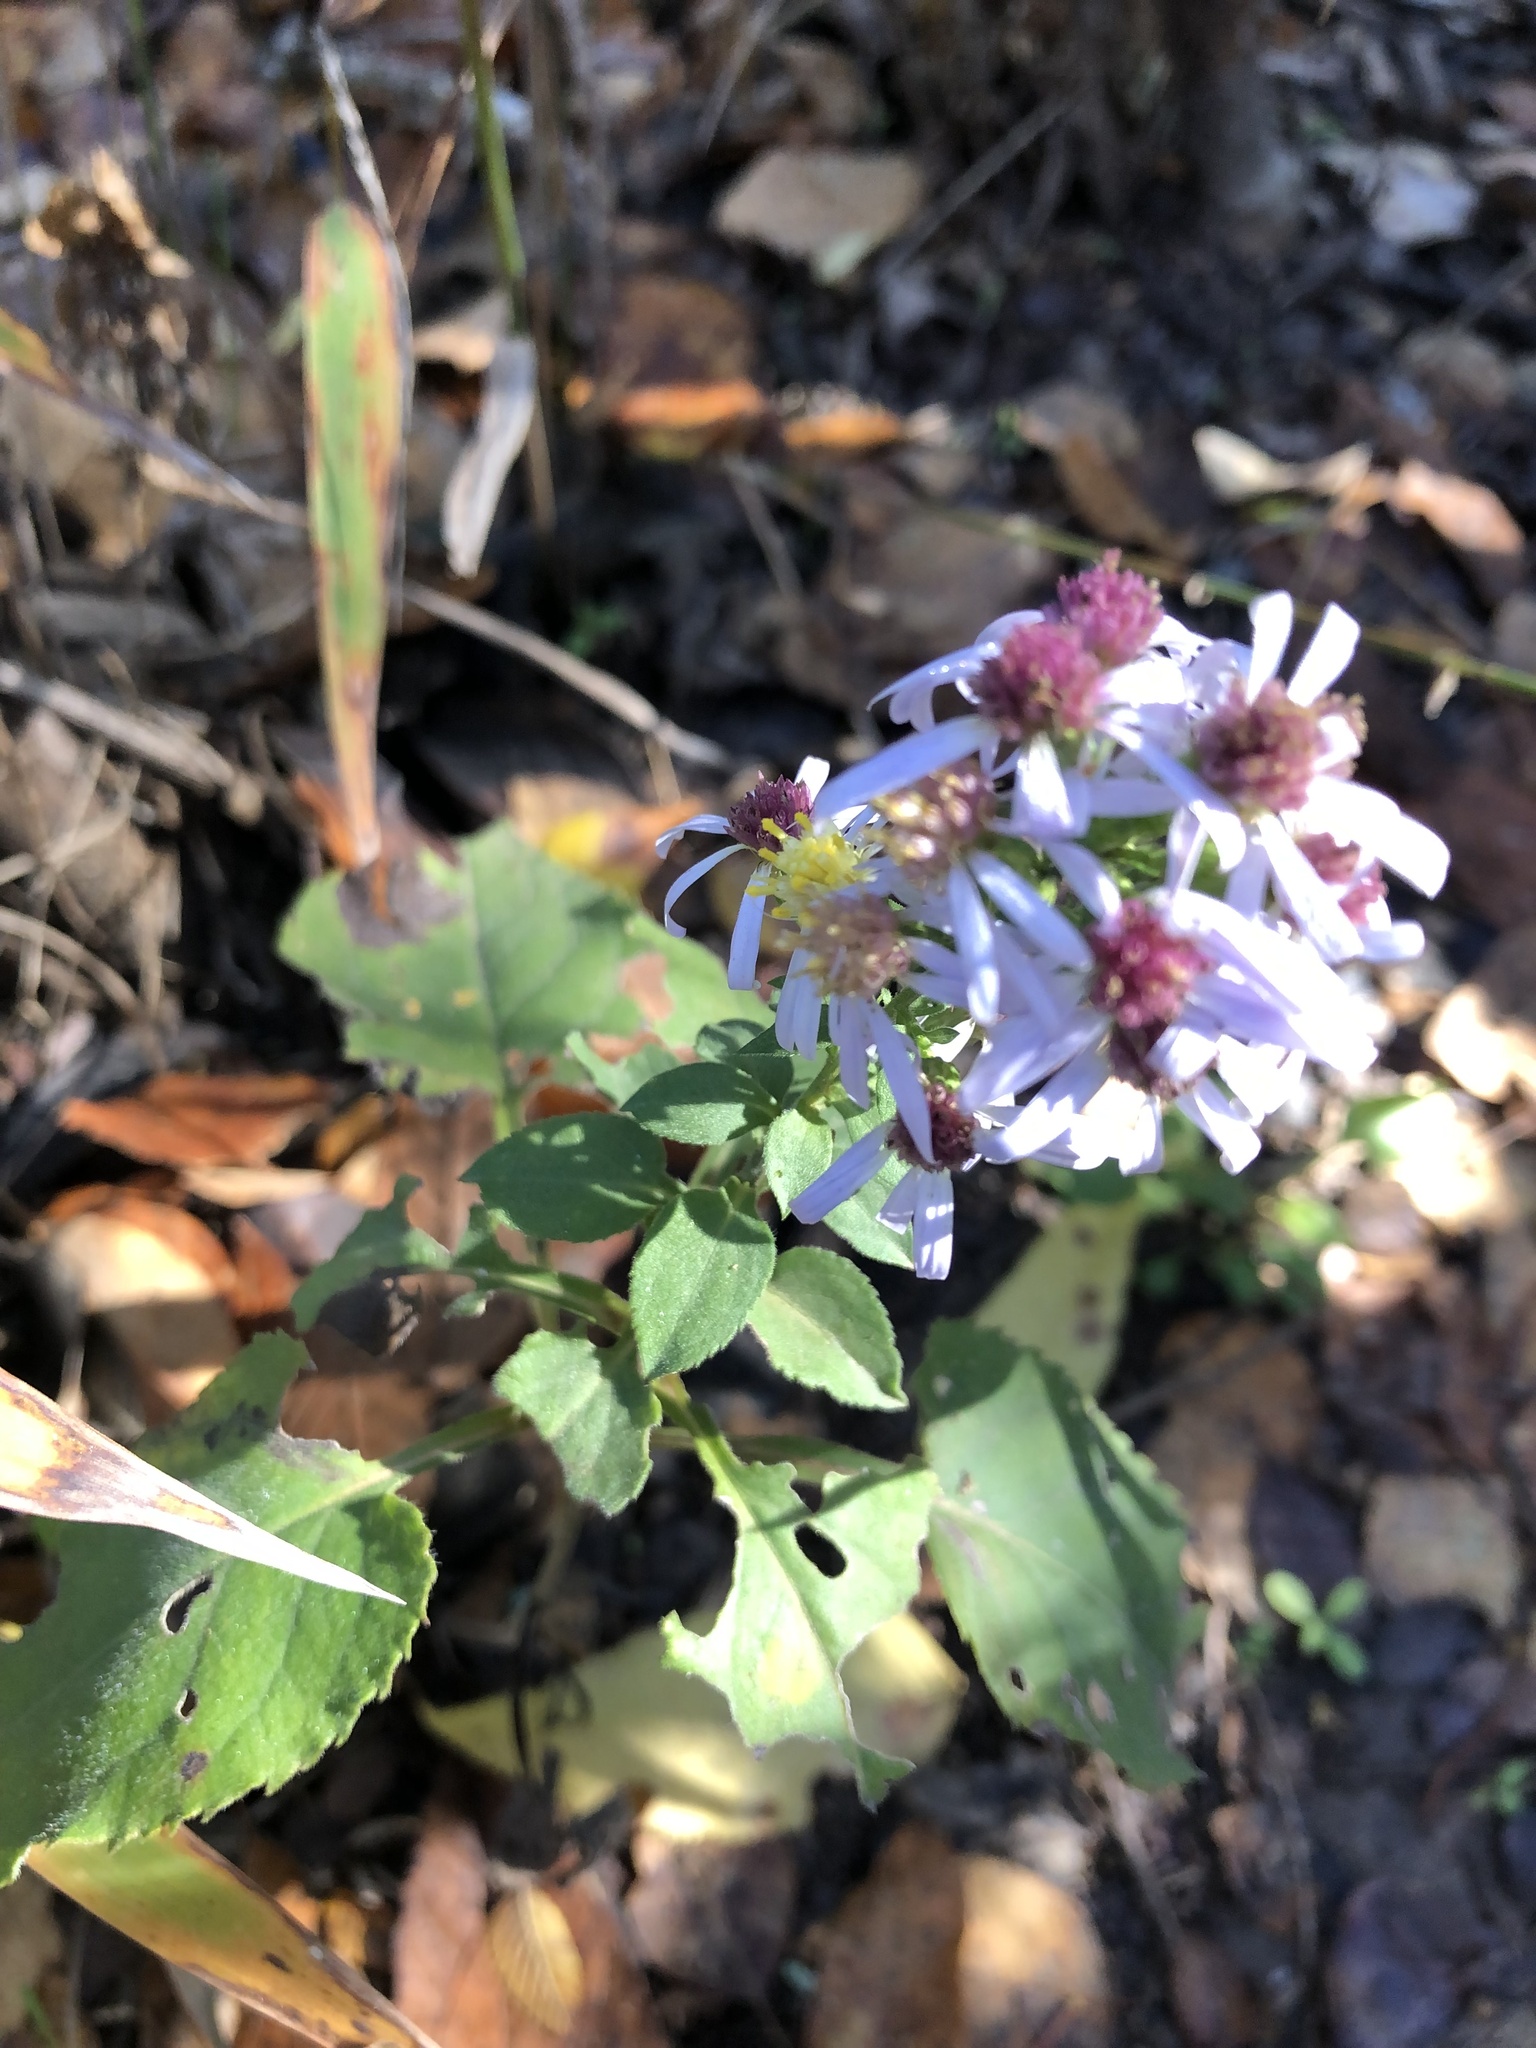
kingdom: Plantae
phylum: Tracheophyta
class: Magnoliopsida
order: Asterales
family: Asteraceae
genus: Symphyotrichum
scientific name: Symphyotrichum drummondii
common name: Drummond's aster
